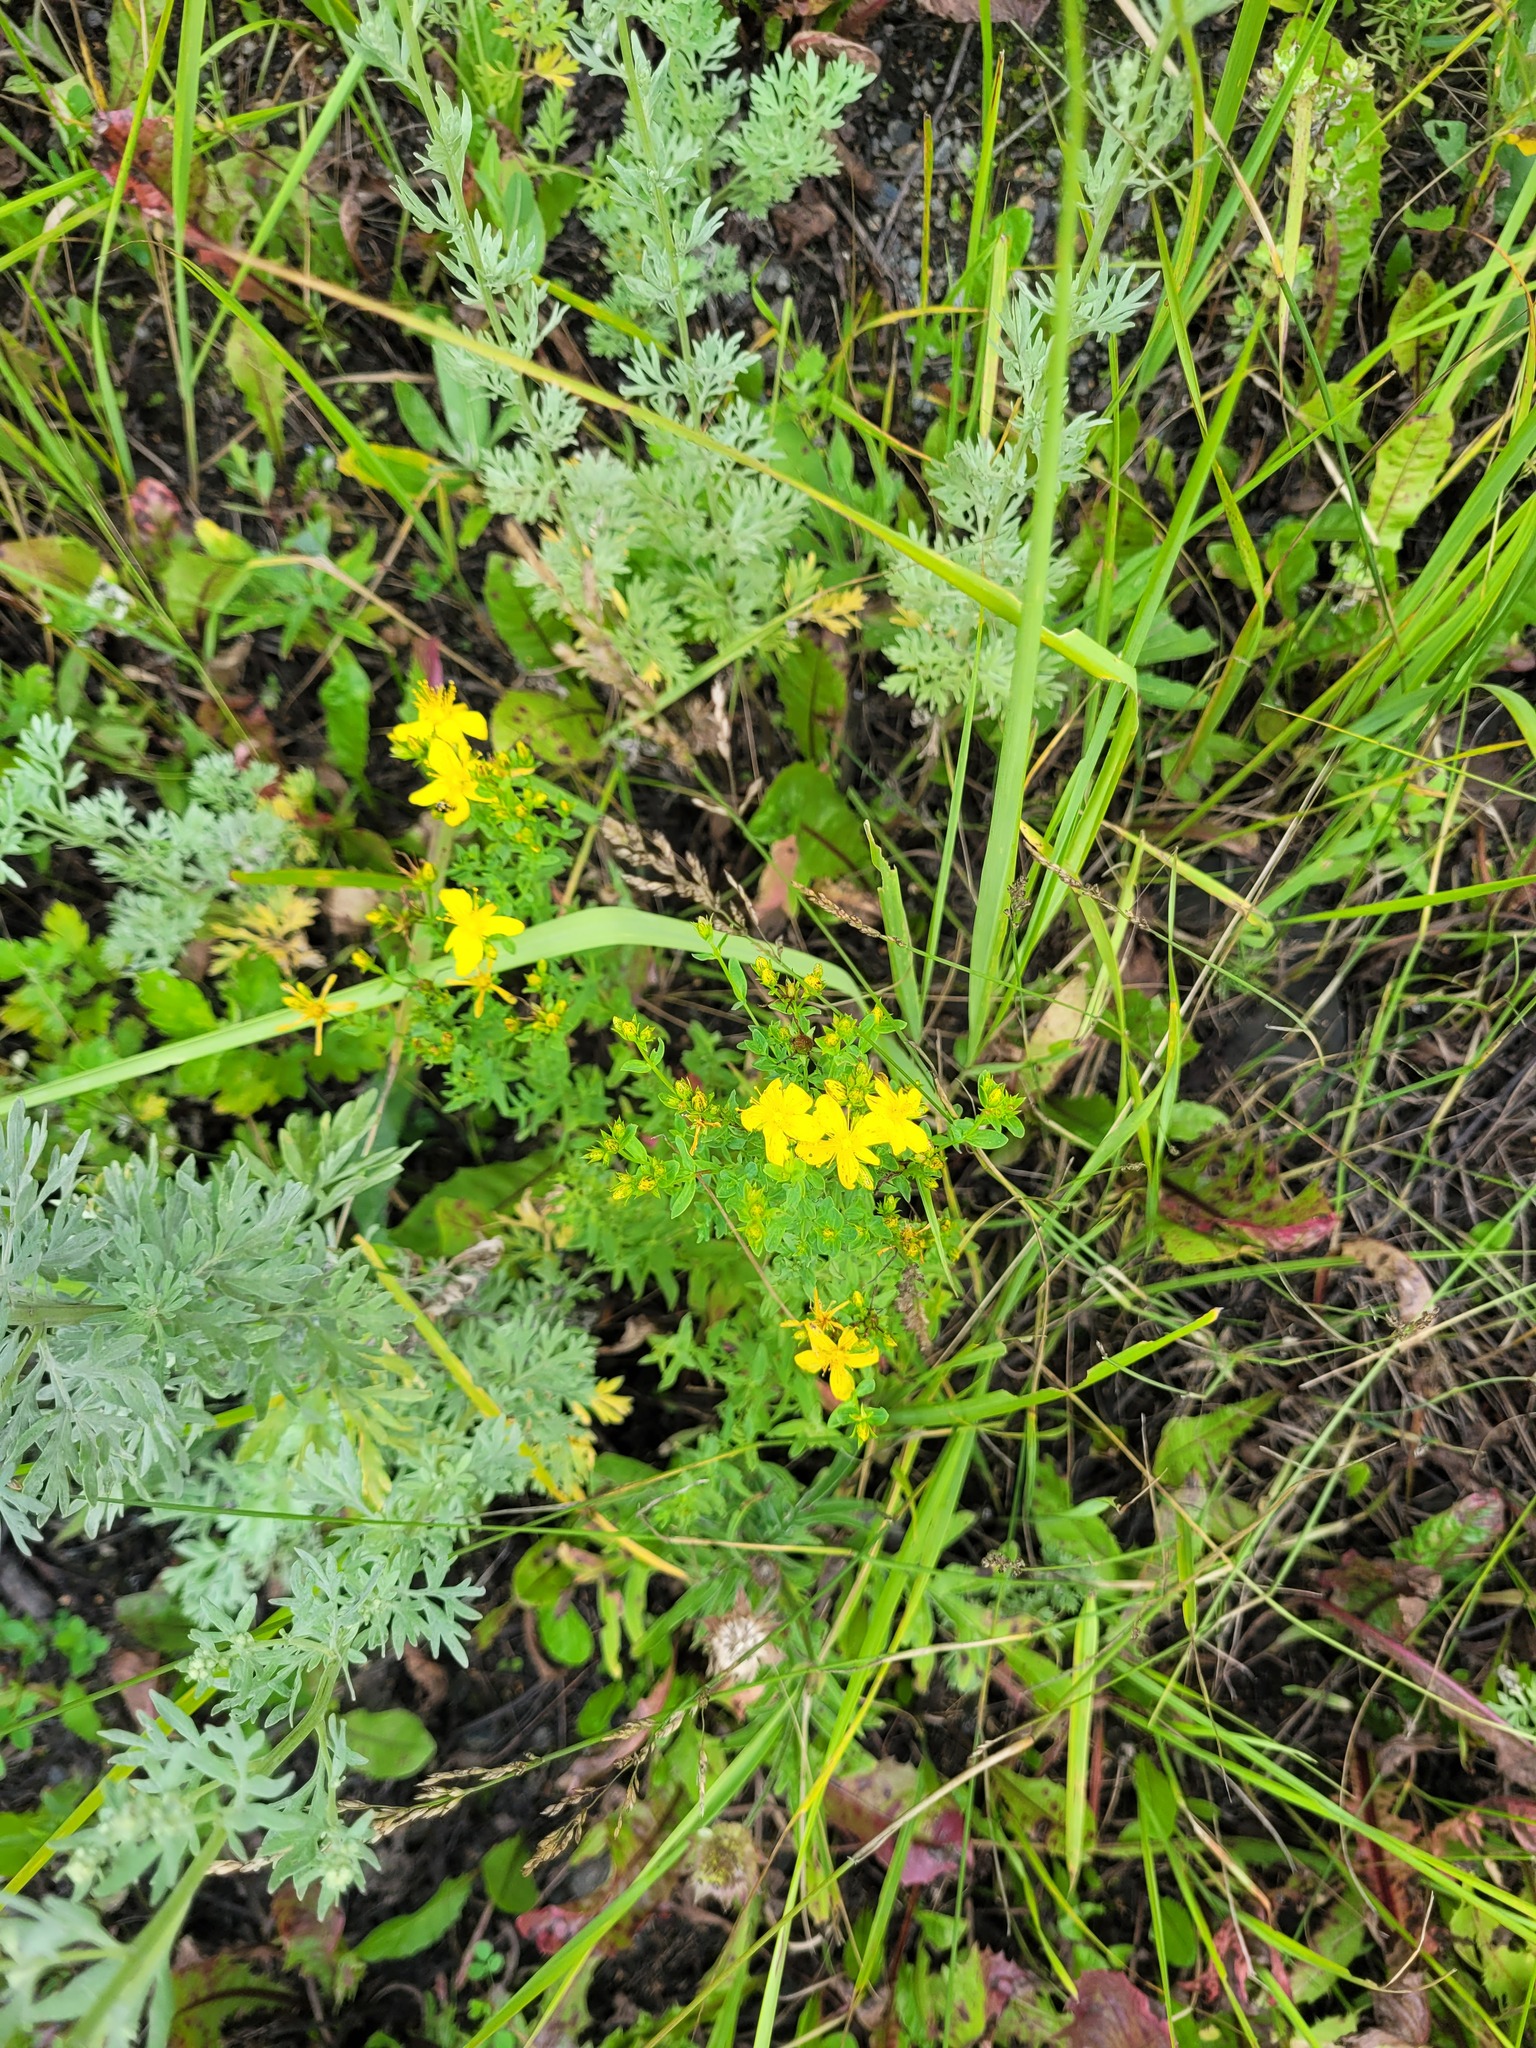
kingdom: Plantae
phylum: Tracheophyta
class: Magnoliopsida
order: Malpighiales
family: Hypericaceae
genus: Hypericum
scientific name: Hypericum perforatum
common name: Common st. johnswort
